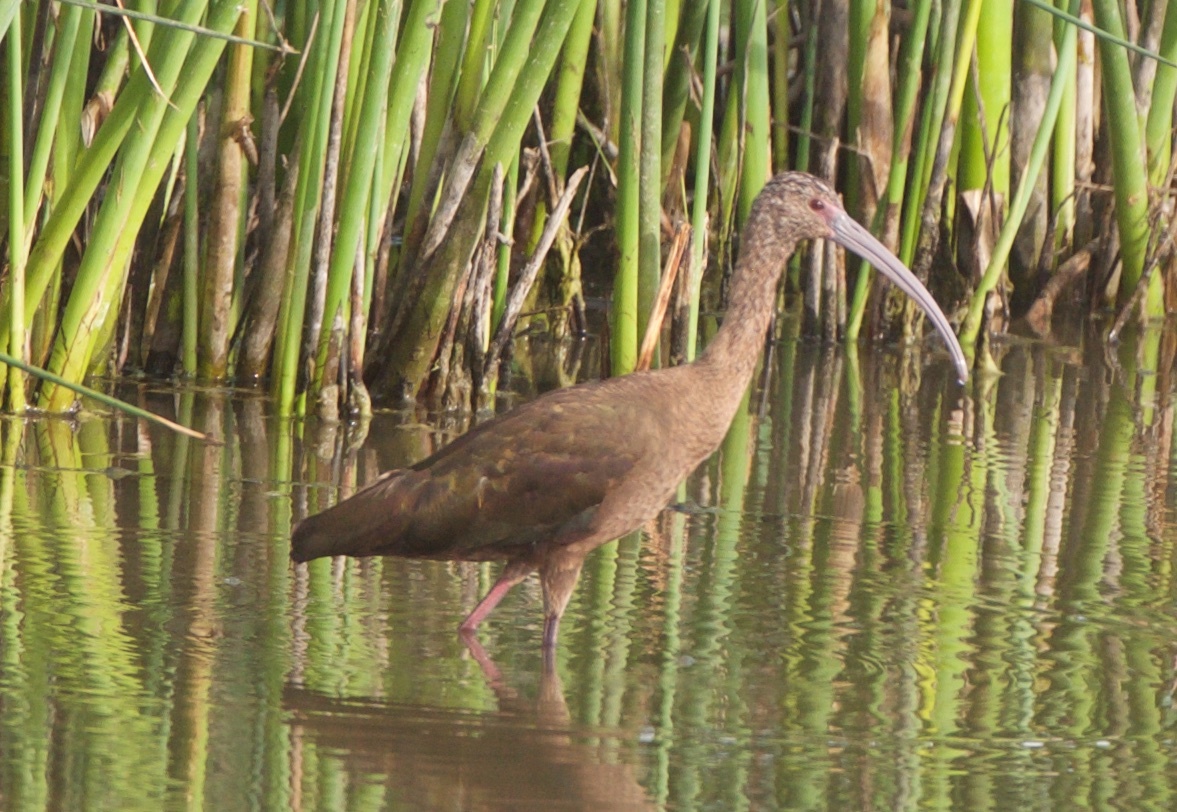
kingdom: Animalia
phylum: Chordata
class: Aves
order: Pelecaniformes
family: Threskiornithidae
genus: Plegadis
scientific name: Plegadis chihi
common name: White-faced ibis
